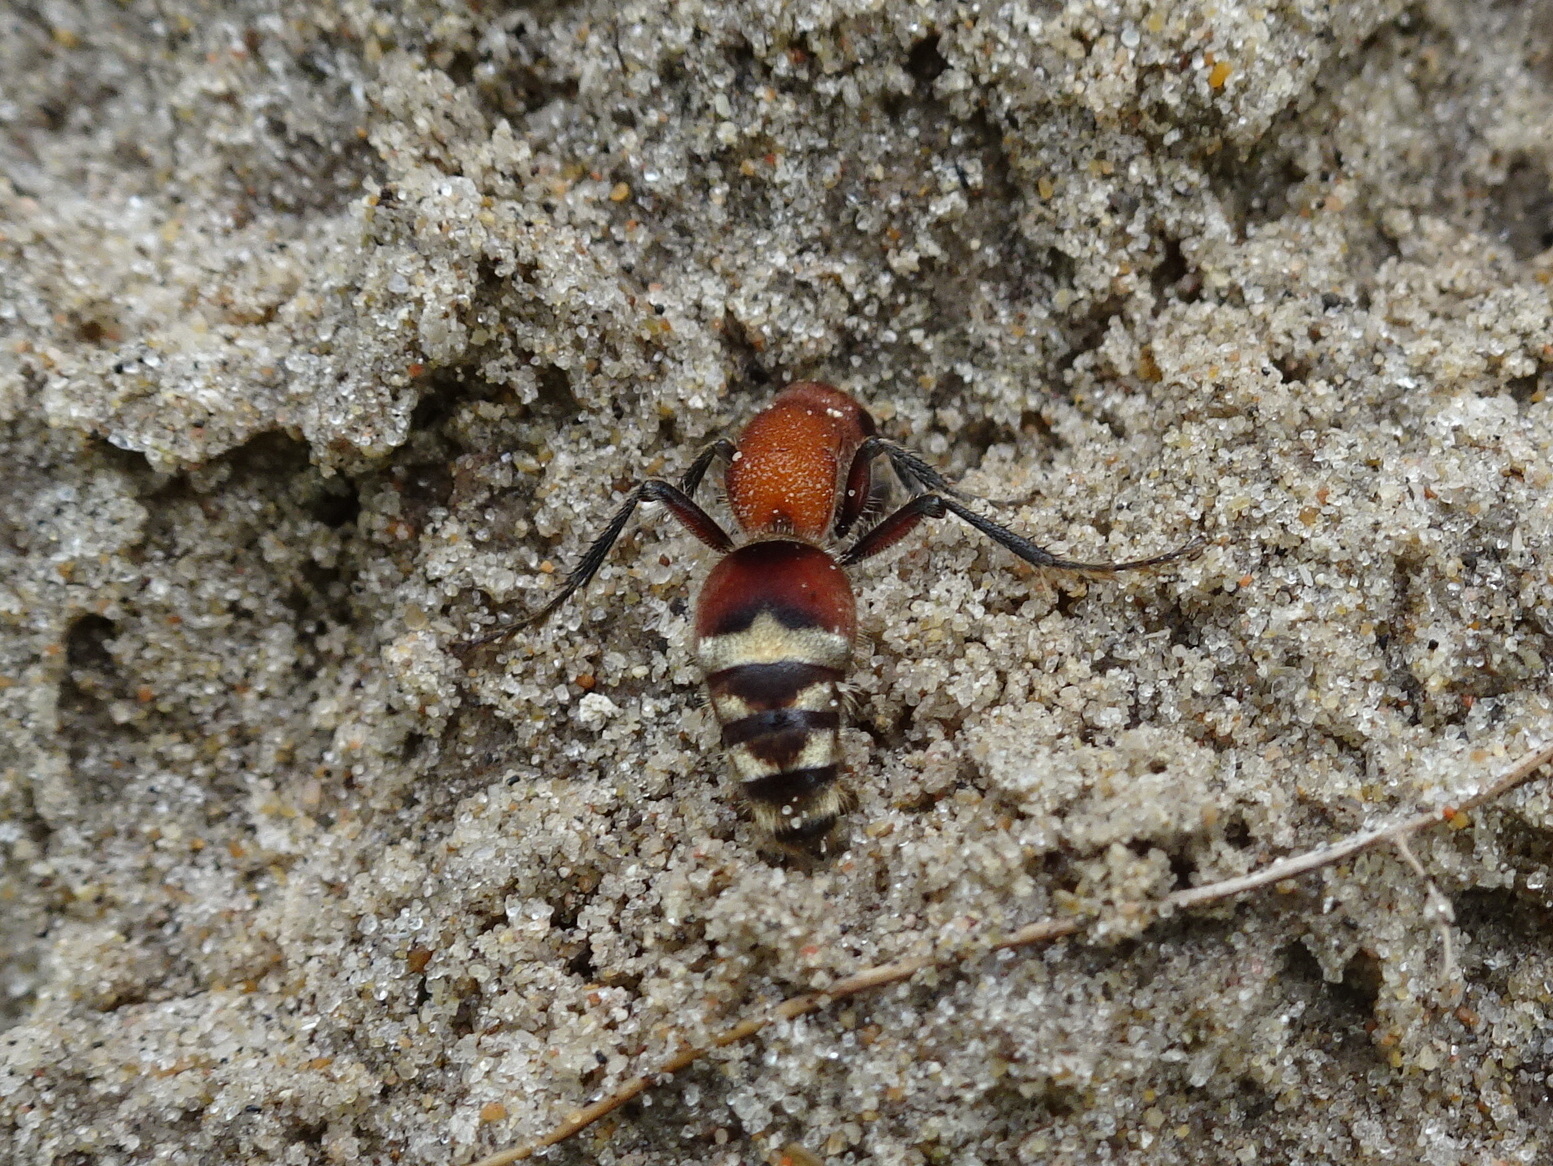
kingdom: Animalia
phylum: Arthropoda
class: Insecta
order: Hymenoptera
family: Mutillidae
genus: Timulla
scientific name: Timulla
